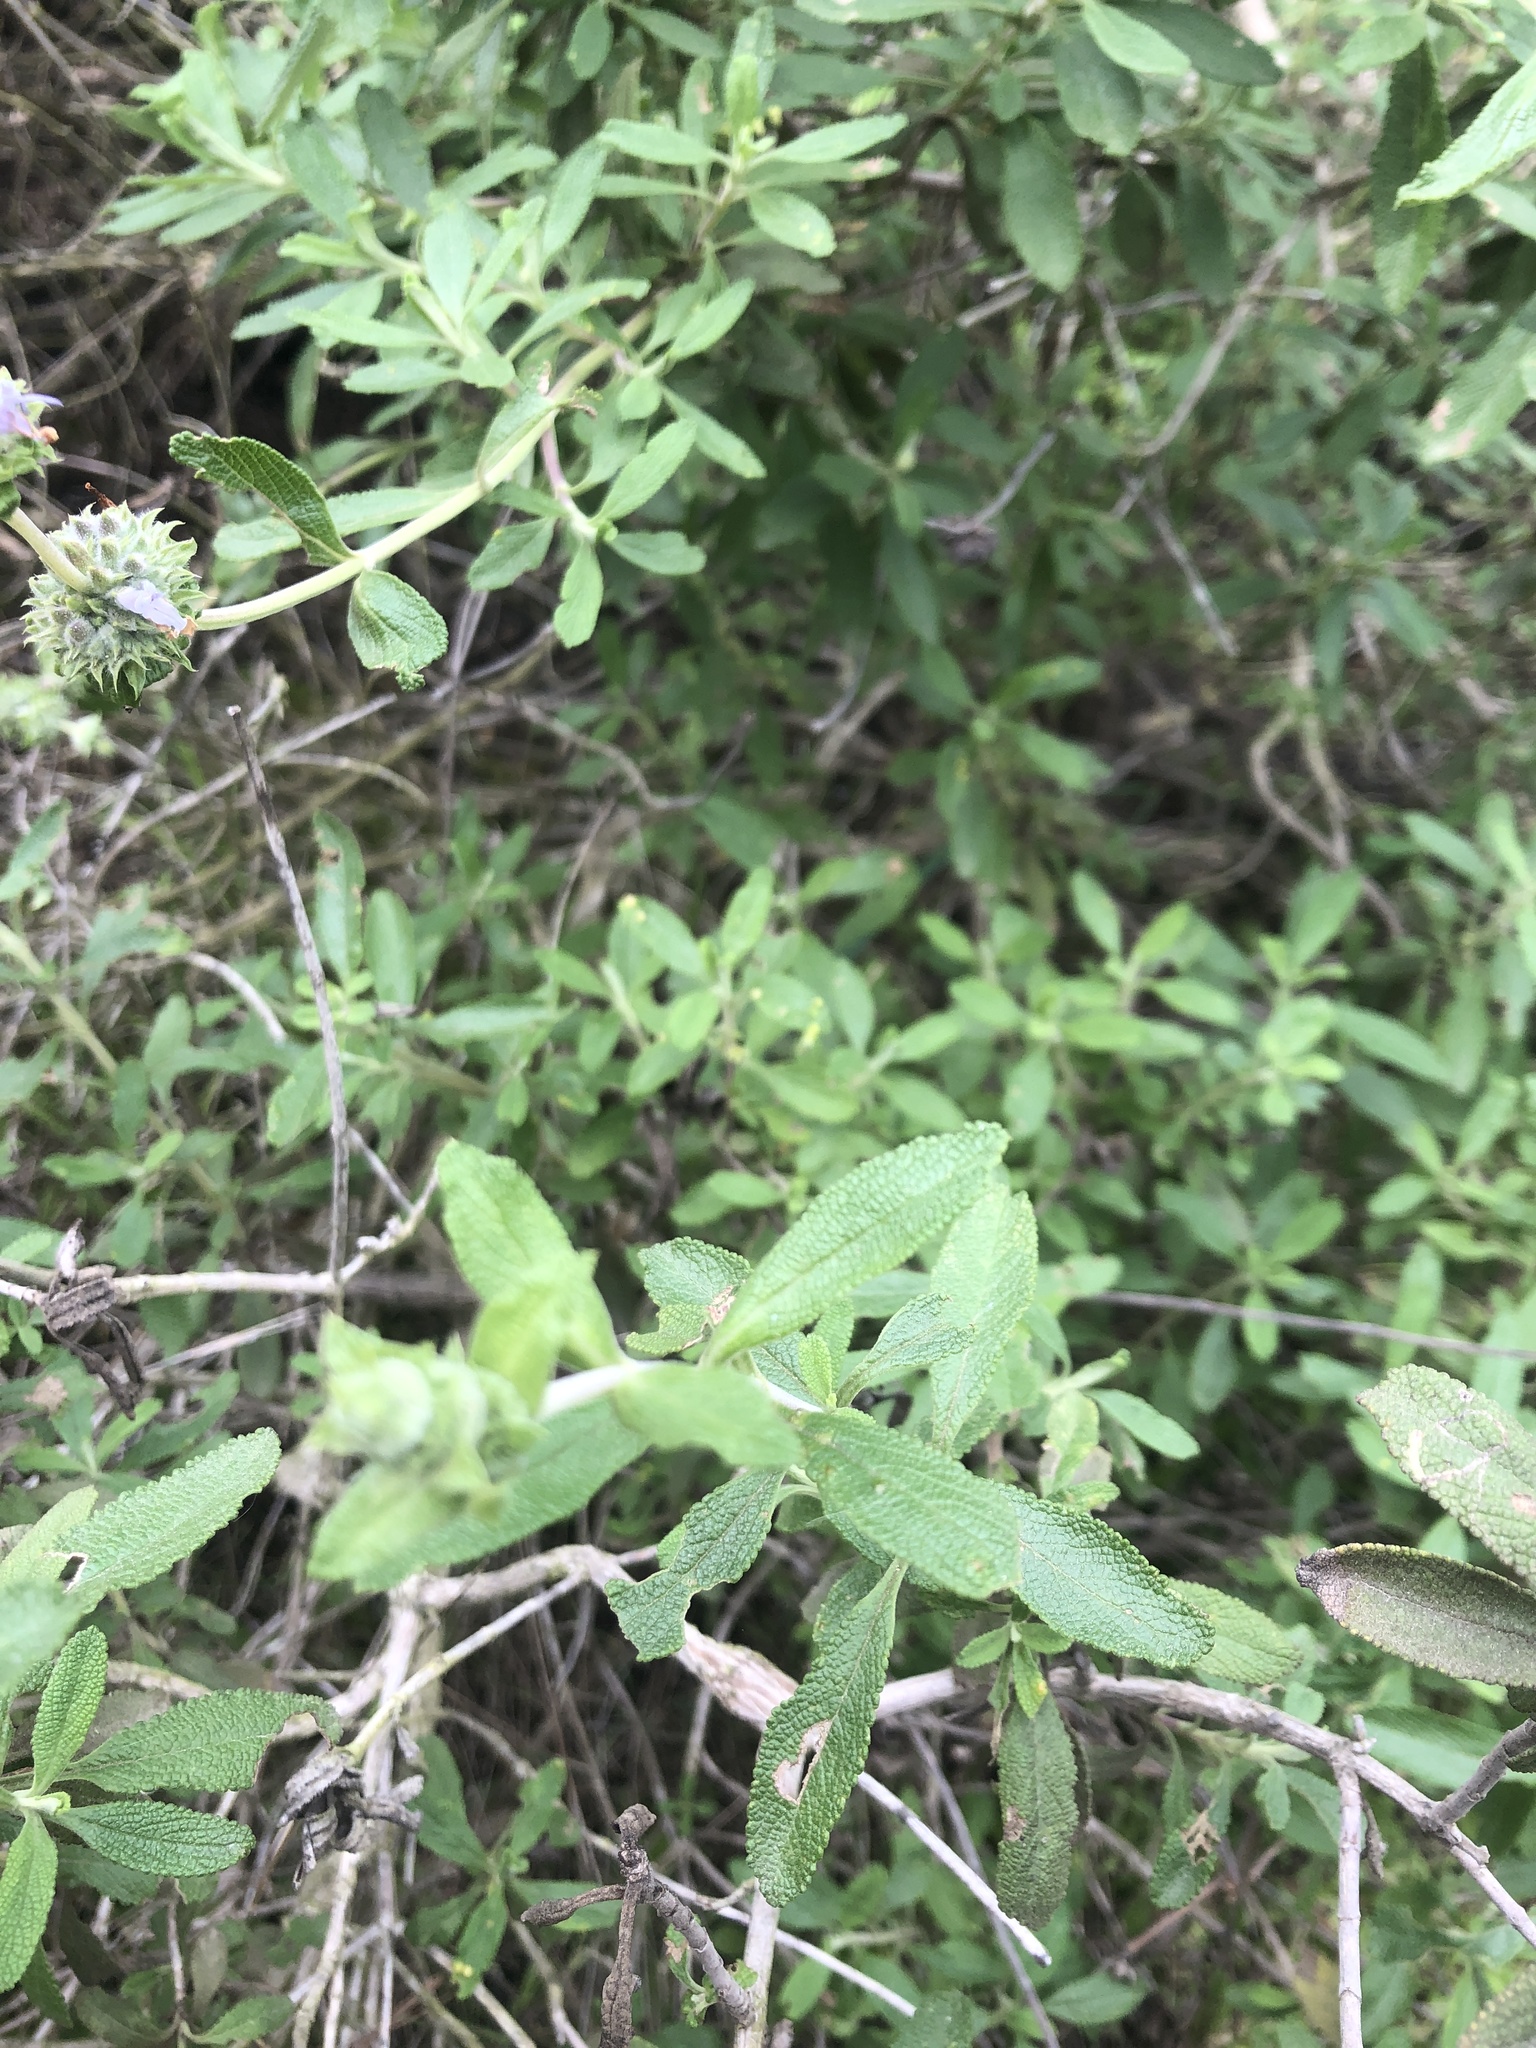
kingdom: Plantae
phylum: Tracheophyta
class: Magnoliopsida
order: Lamiales
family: Lamiaceae
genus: Salvia
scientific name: Salvia mellifera
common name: Black sage
